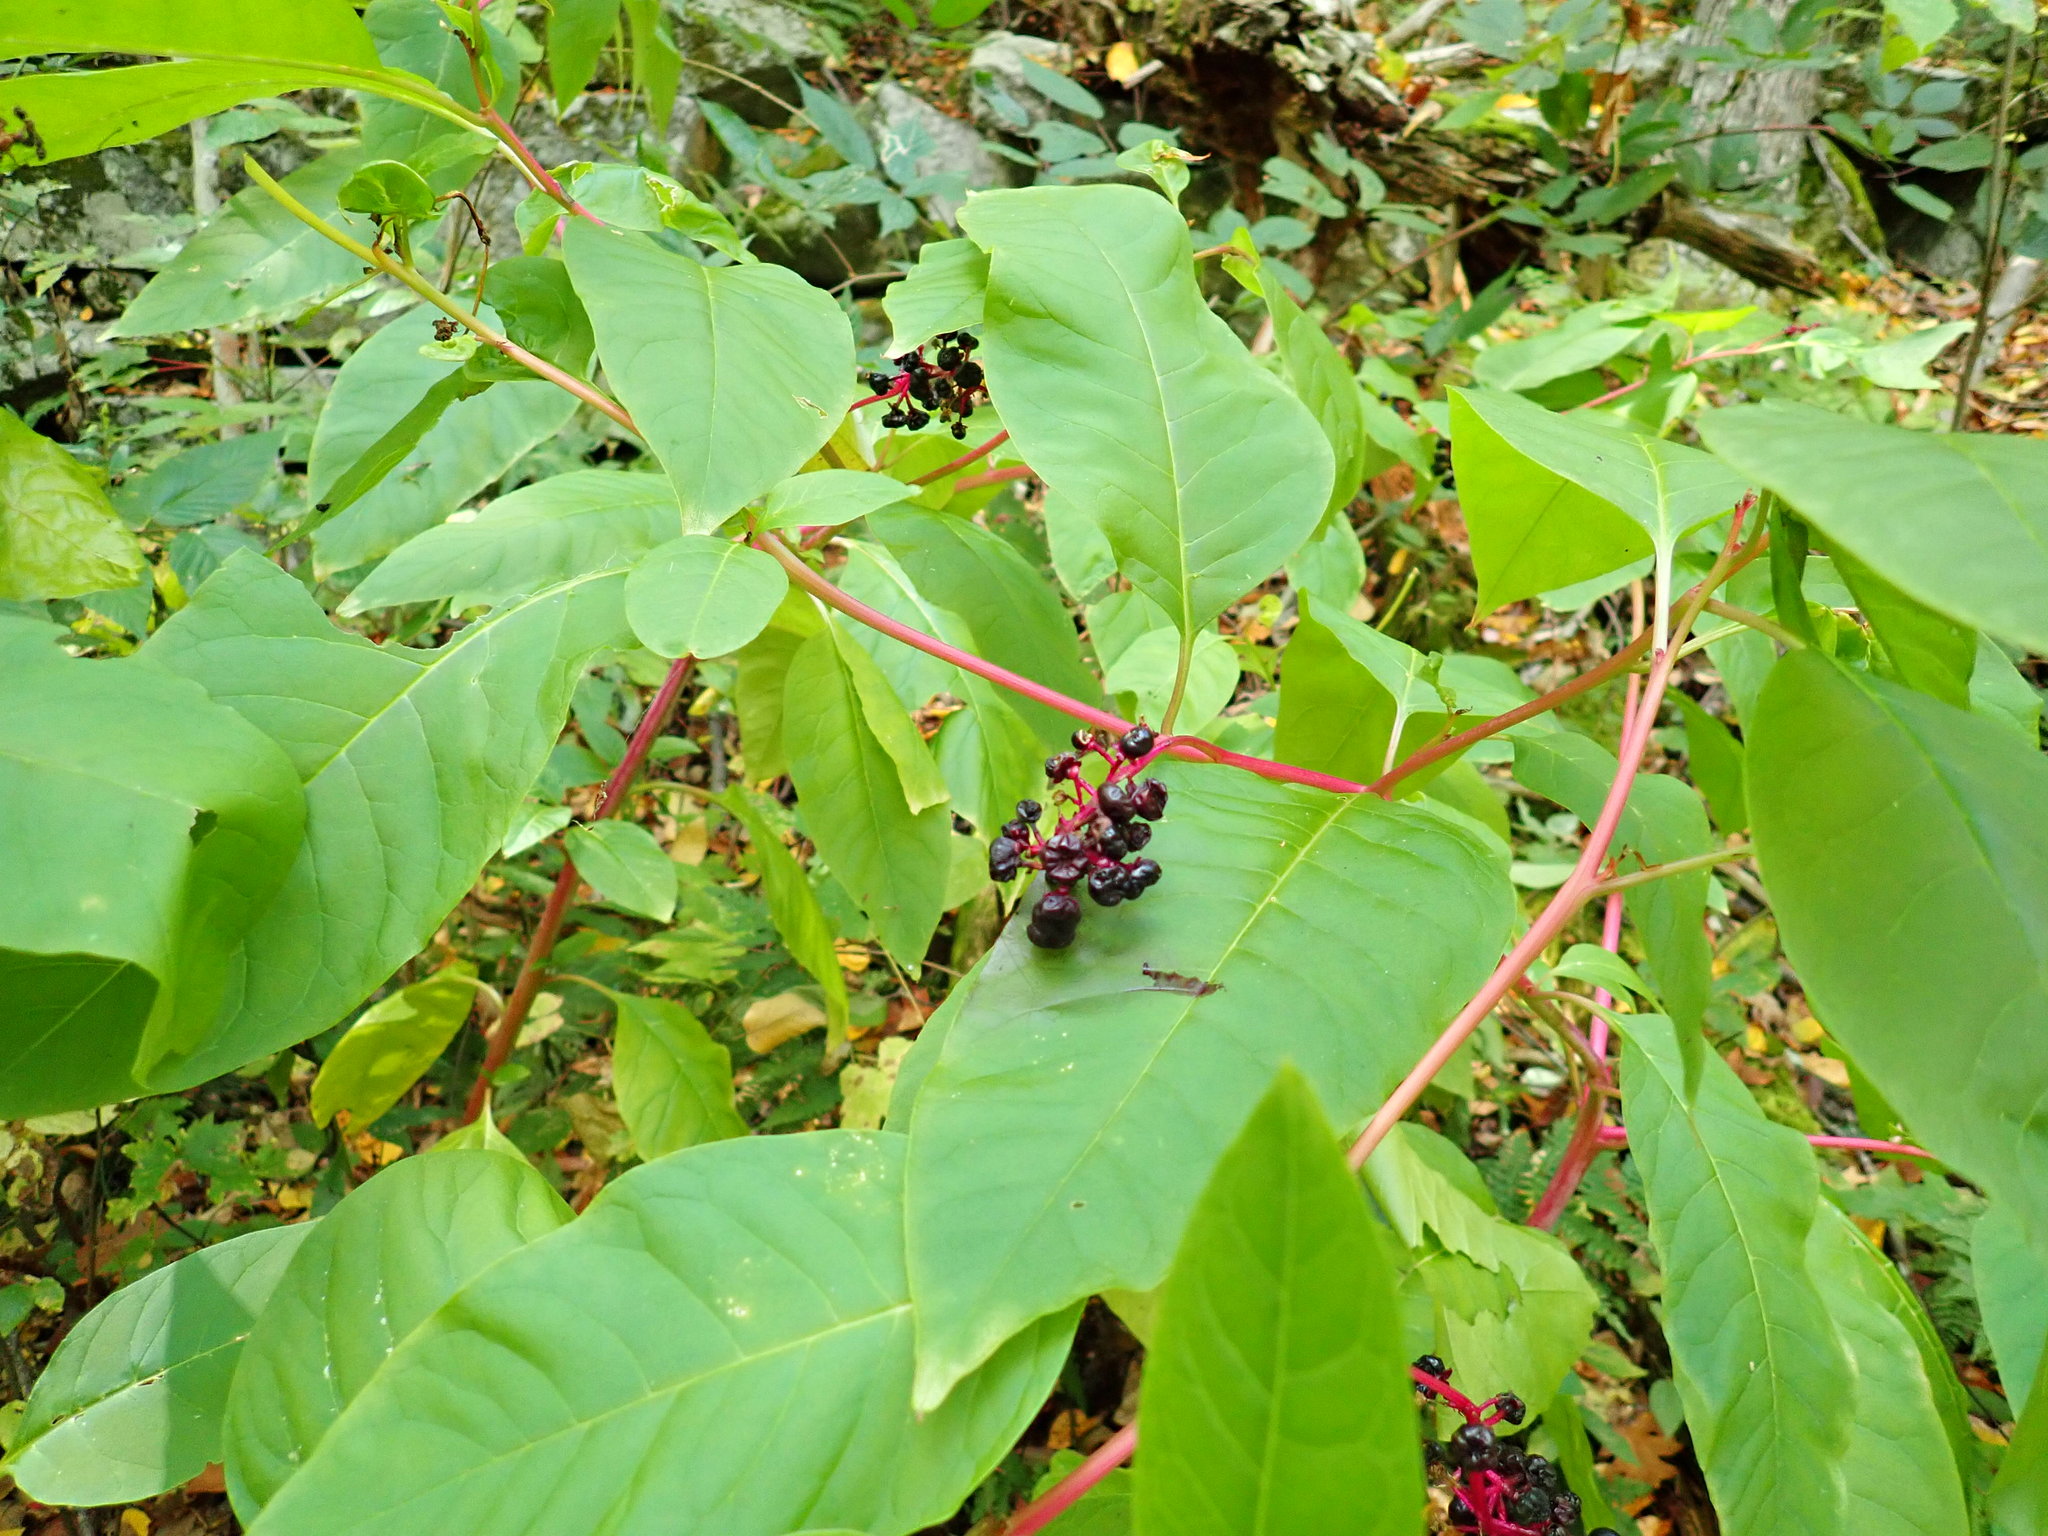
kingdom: Plantae
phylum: Tracheophyta
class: Magnoliopsida
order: Caryophyllales
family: Phytolaccaceae
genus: Phytolacca
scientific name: Phytolacca americana
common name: American pokeweed
